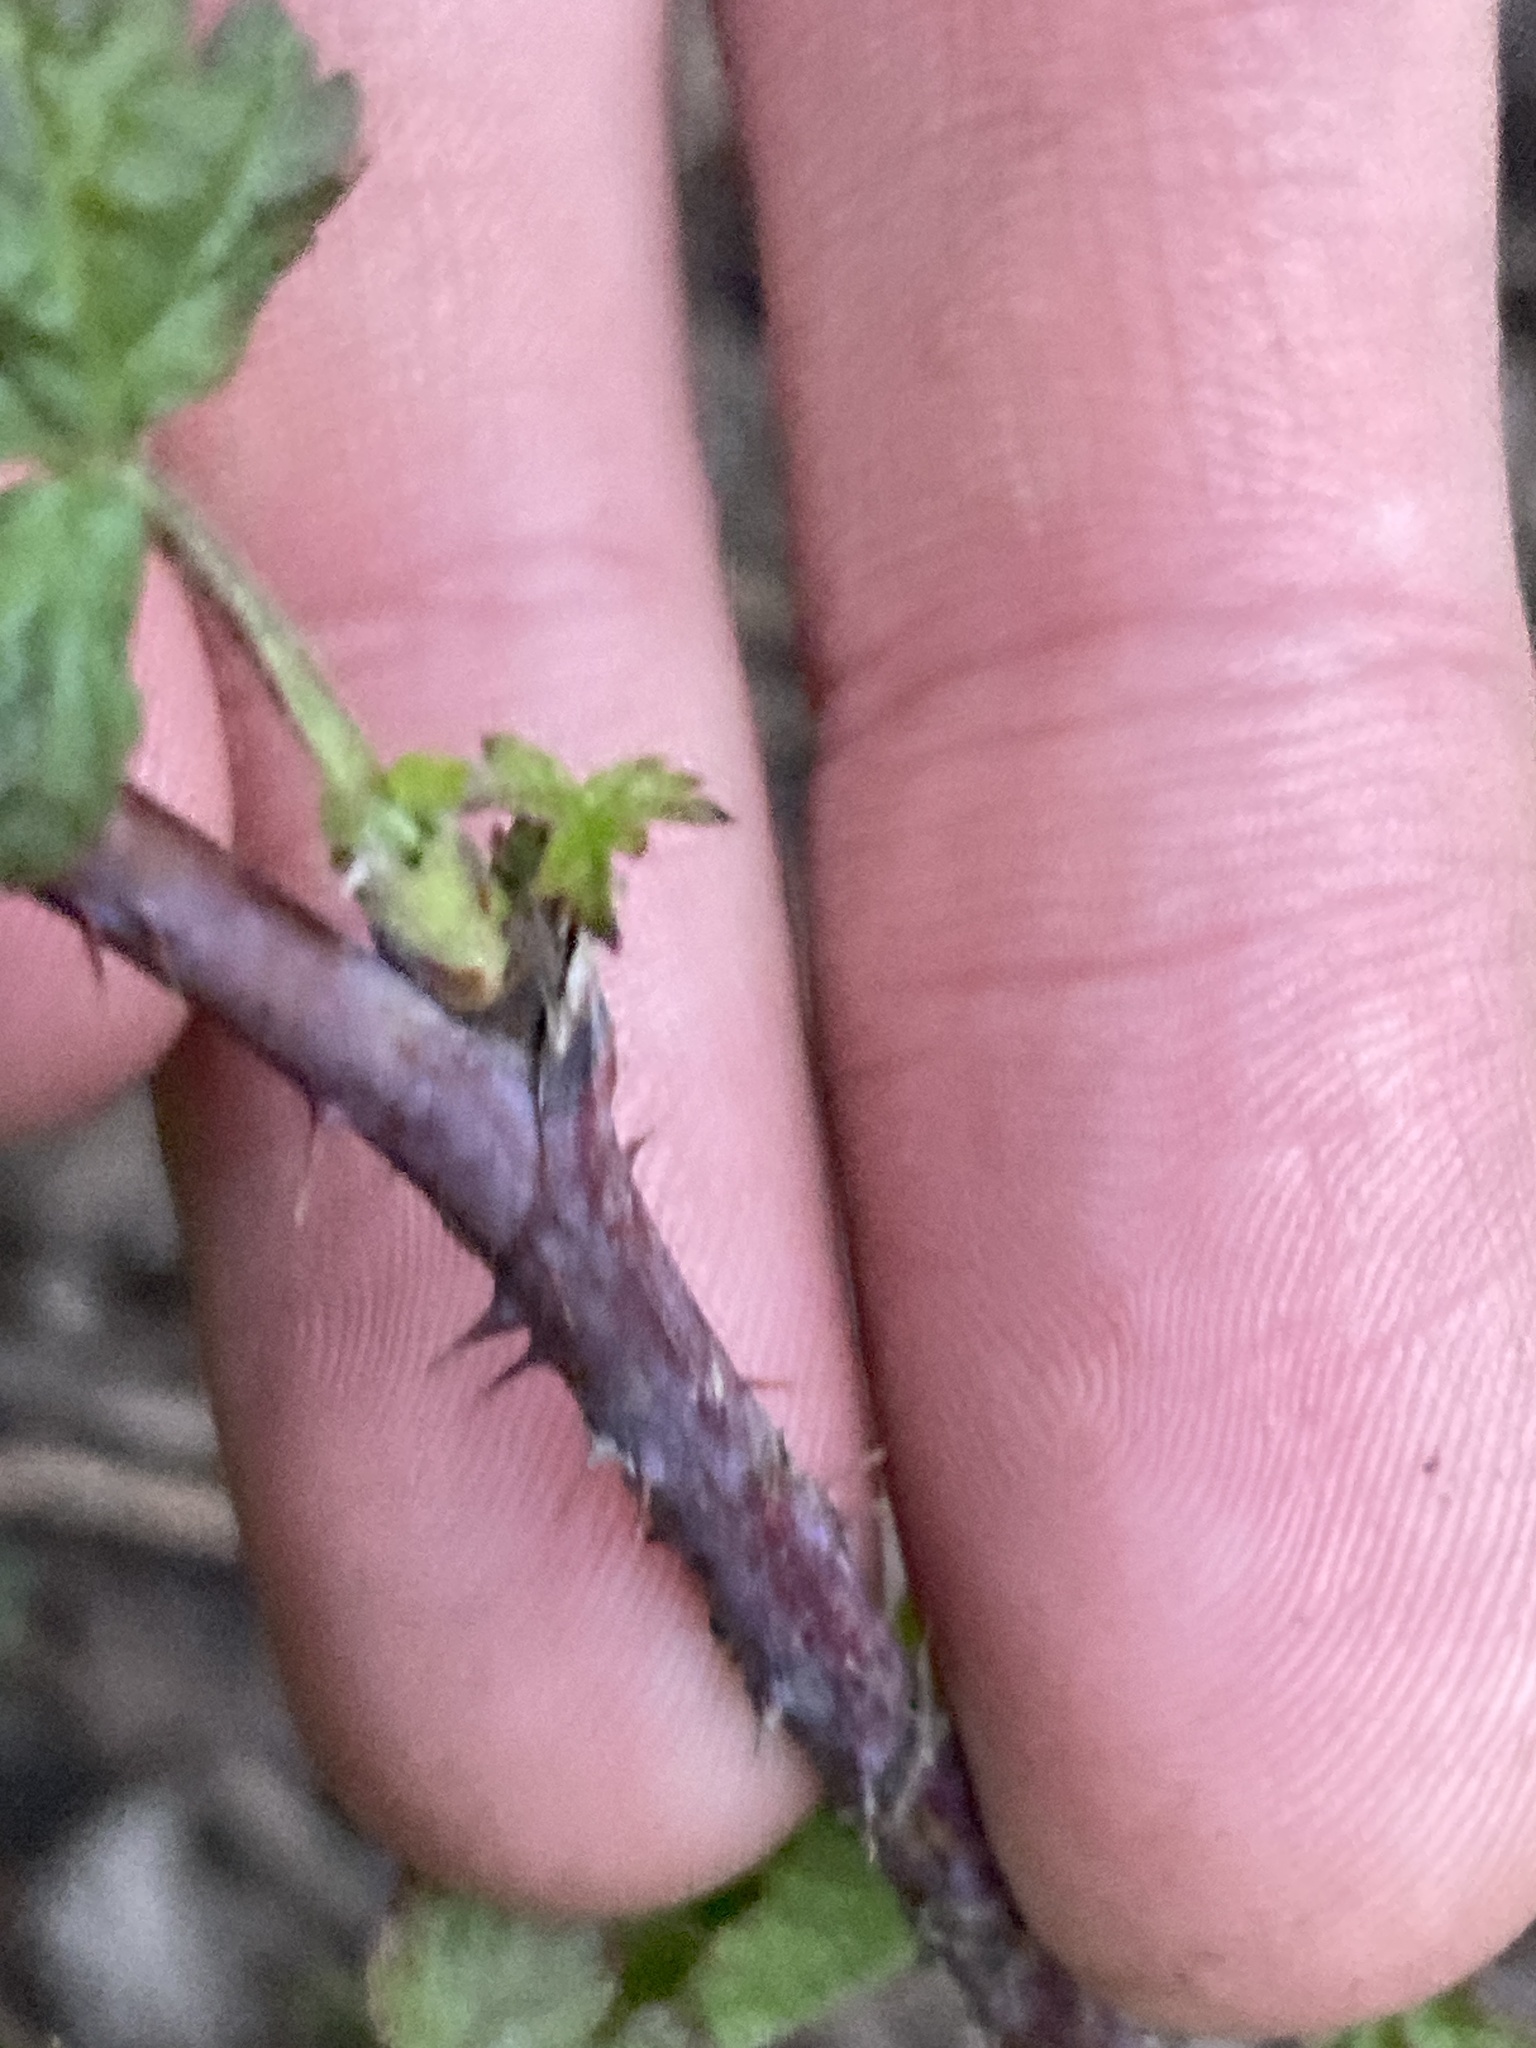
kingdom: Plantae
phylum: Tracheophyta
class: Magnoliopsida
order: Rosales
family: Rosaceae
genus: Rubus
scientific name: Rubus caesius
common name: Dewberry
